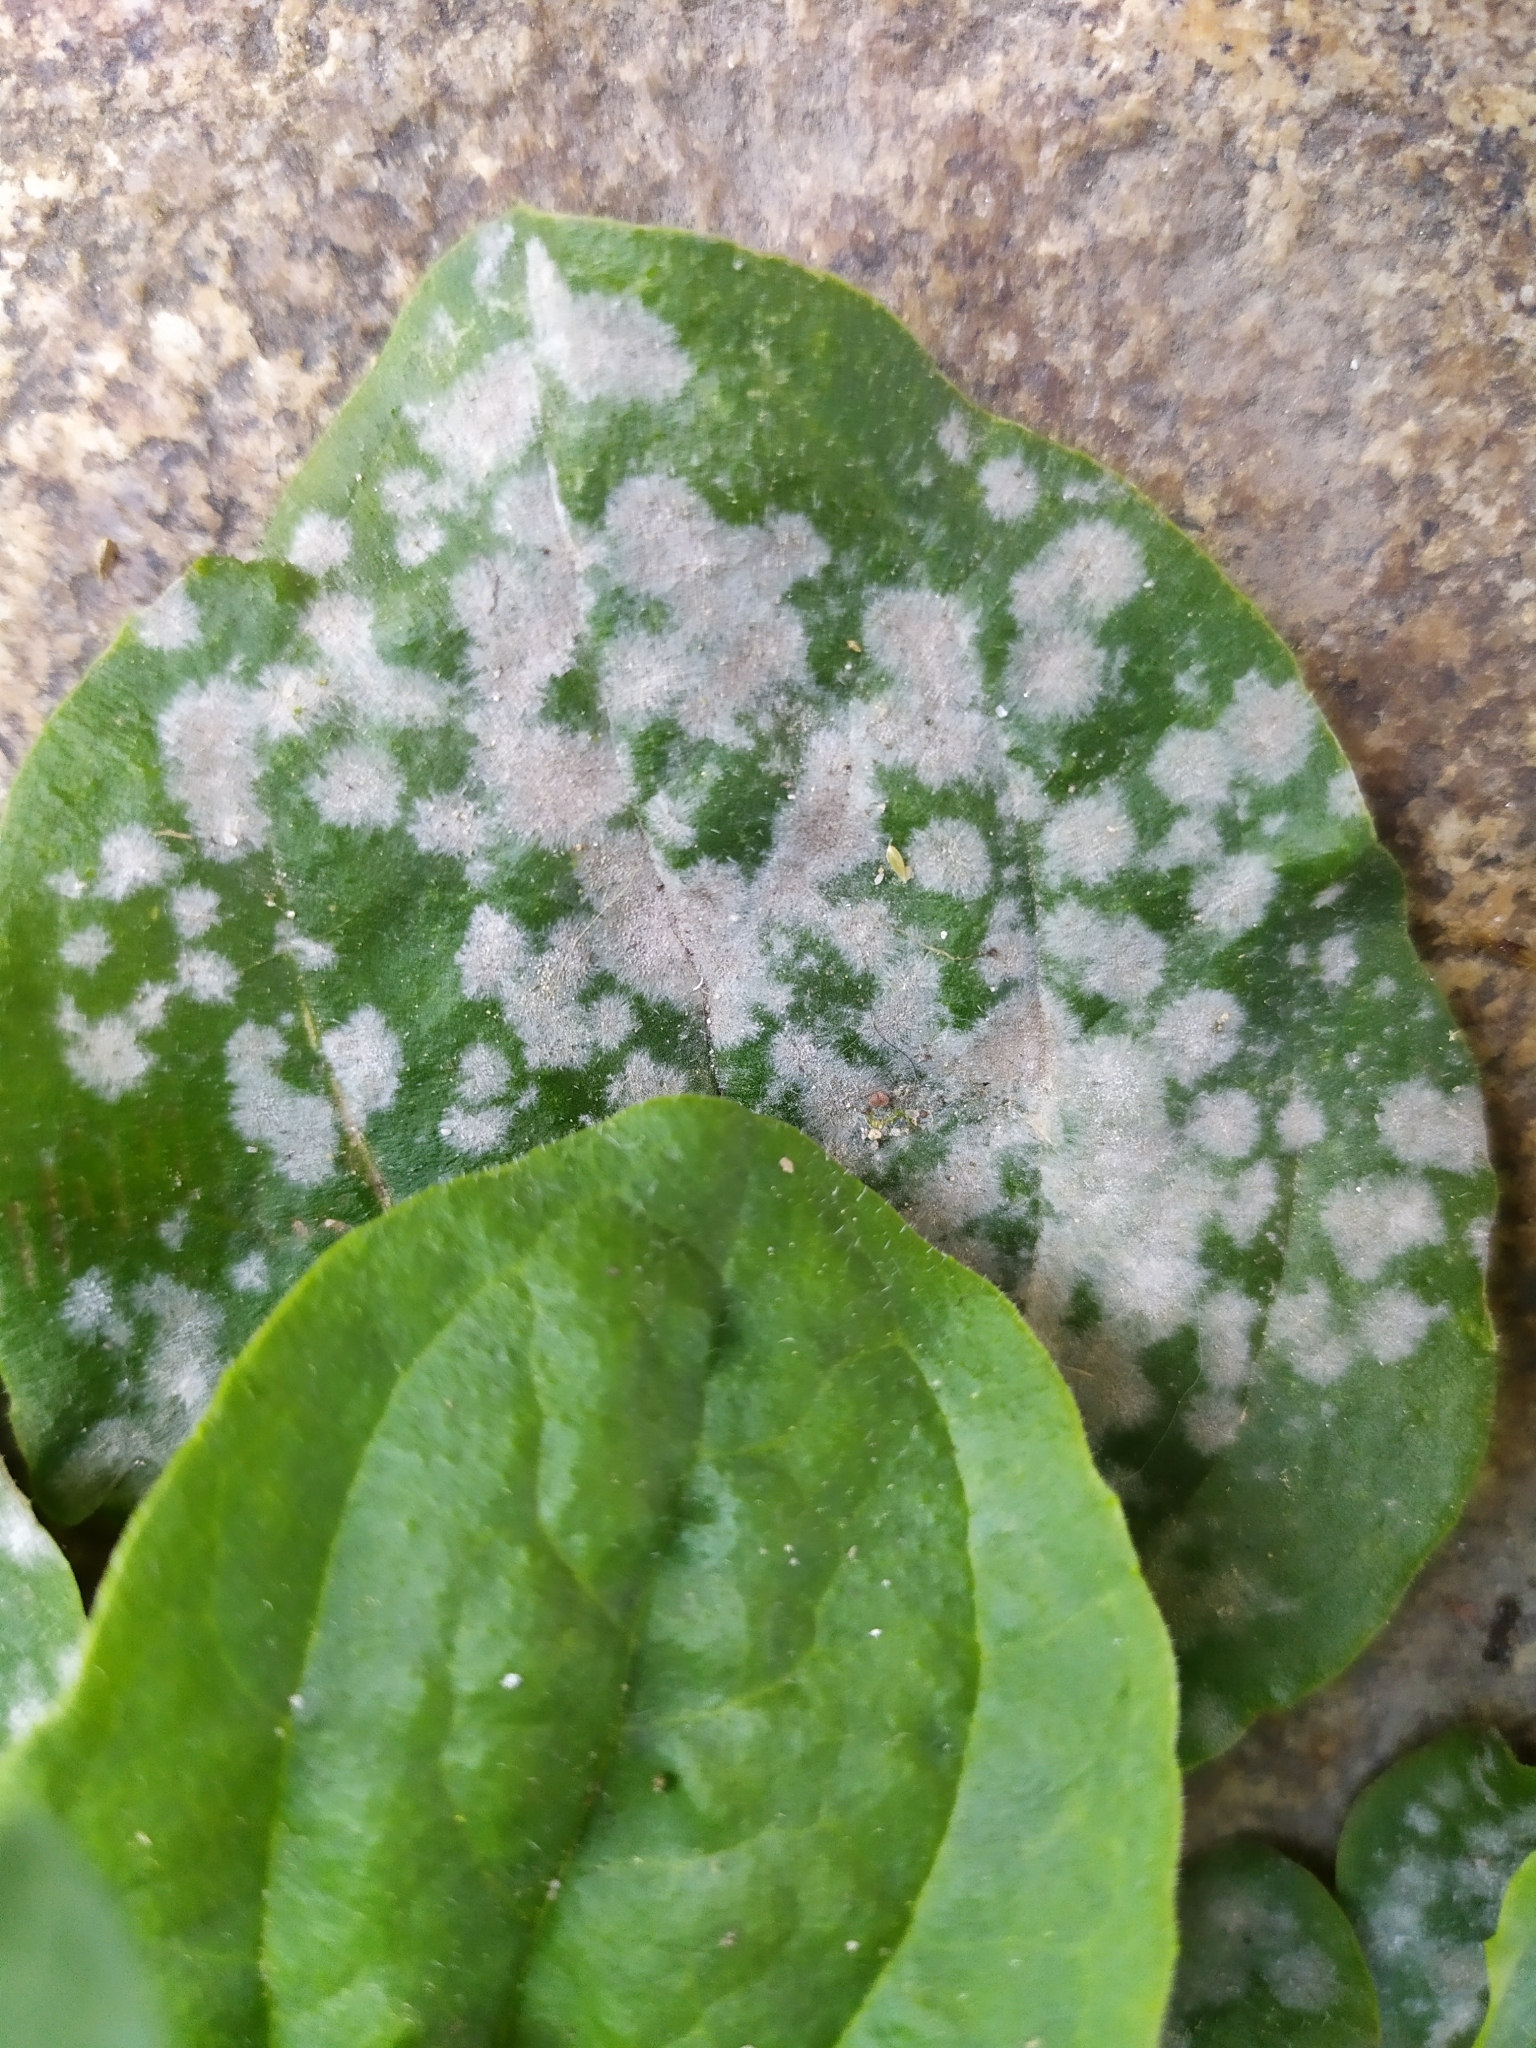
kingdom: Fungi
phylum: Ascomycota
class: Leotiomycetes
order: Helotiales
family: Erysiphaceae
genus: Golovinomyces
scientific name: Golovinomyces sordidus
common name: Plantain mildew
